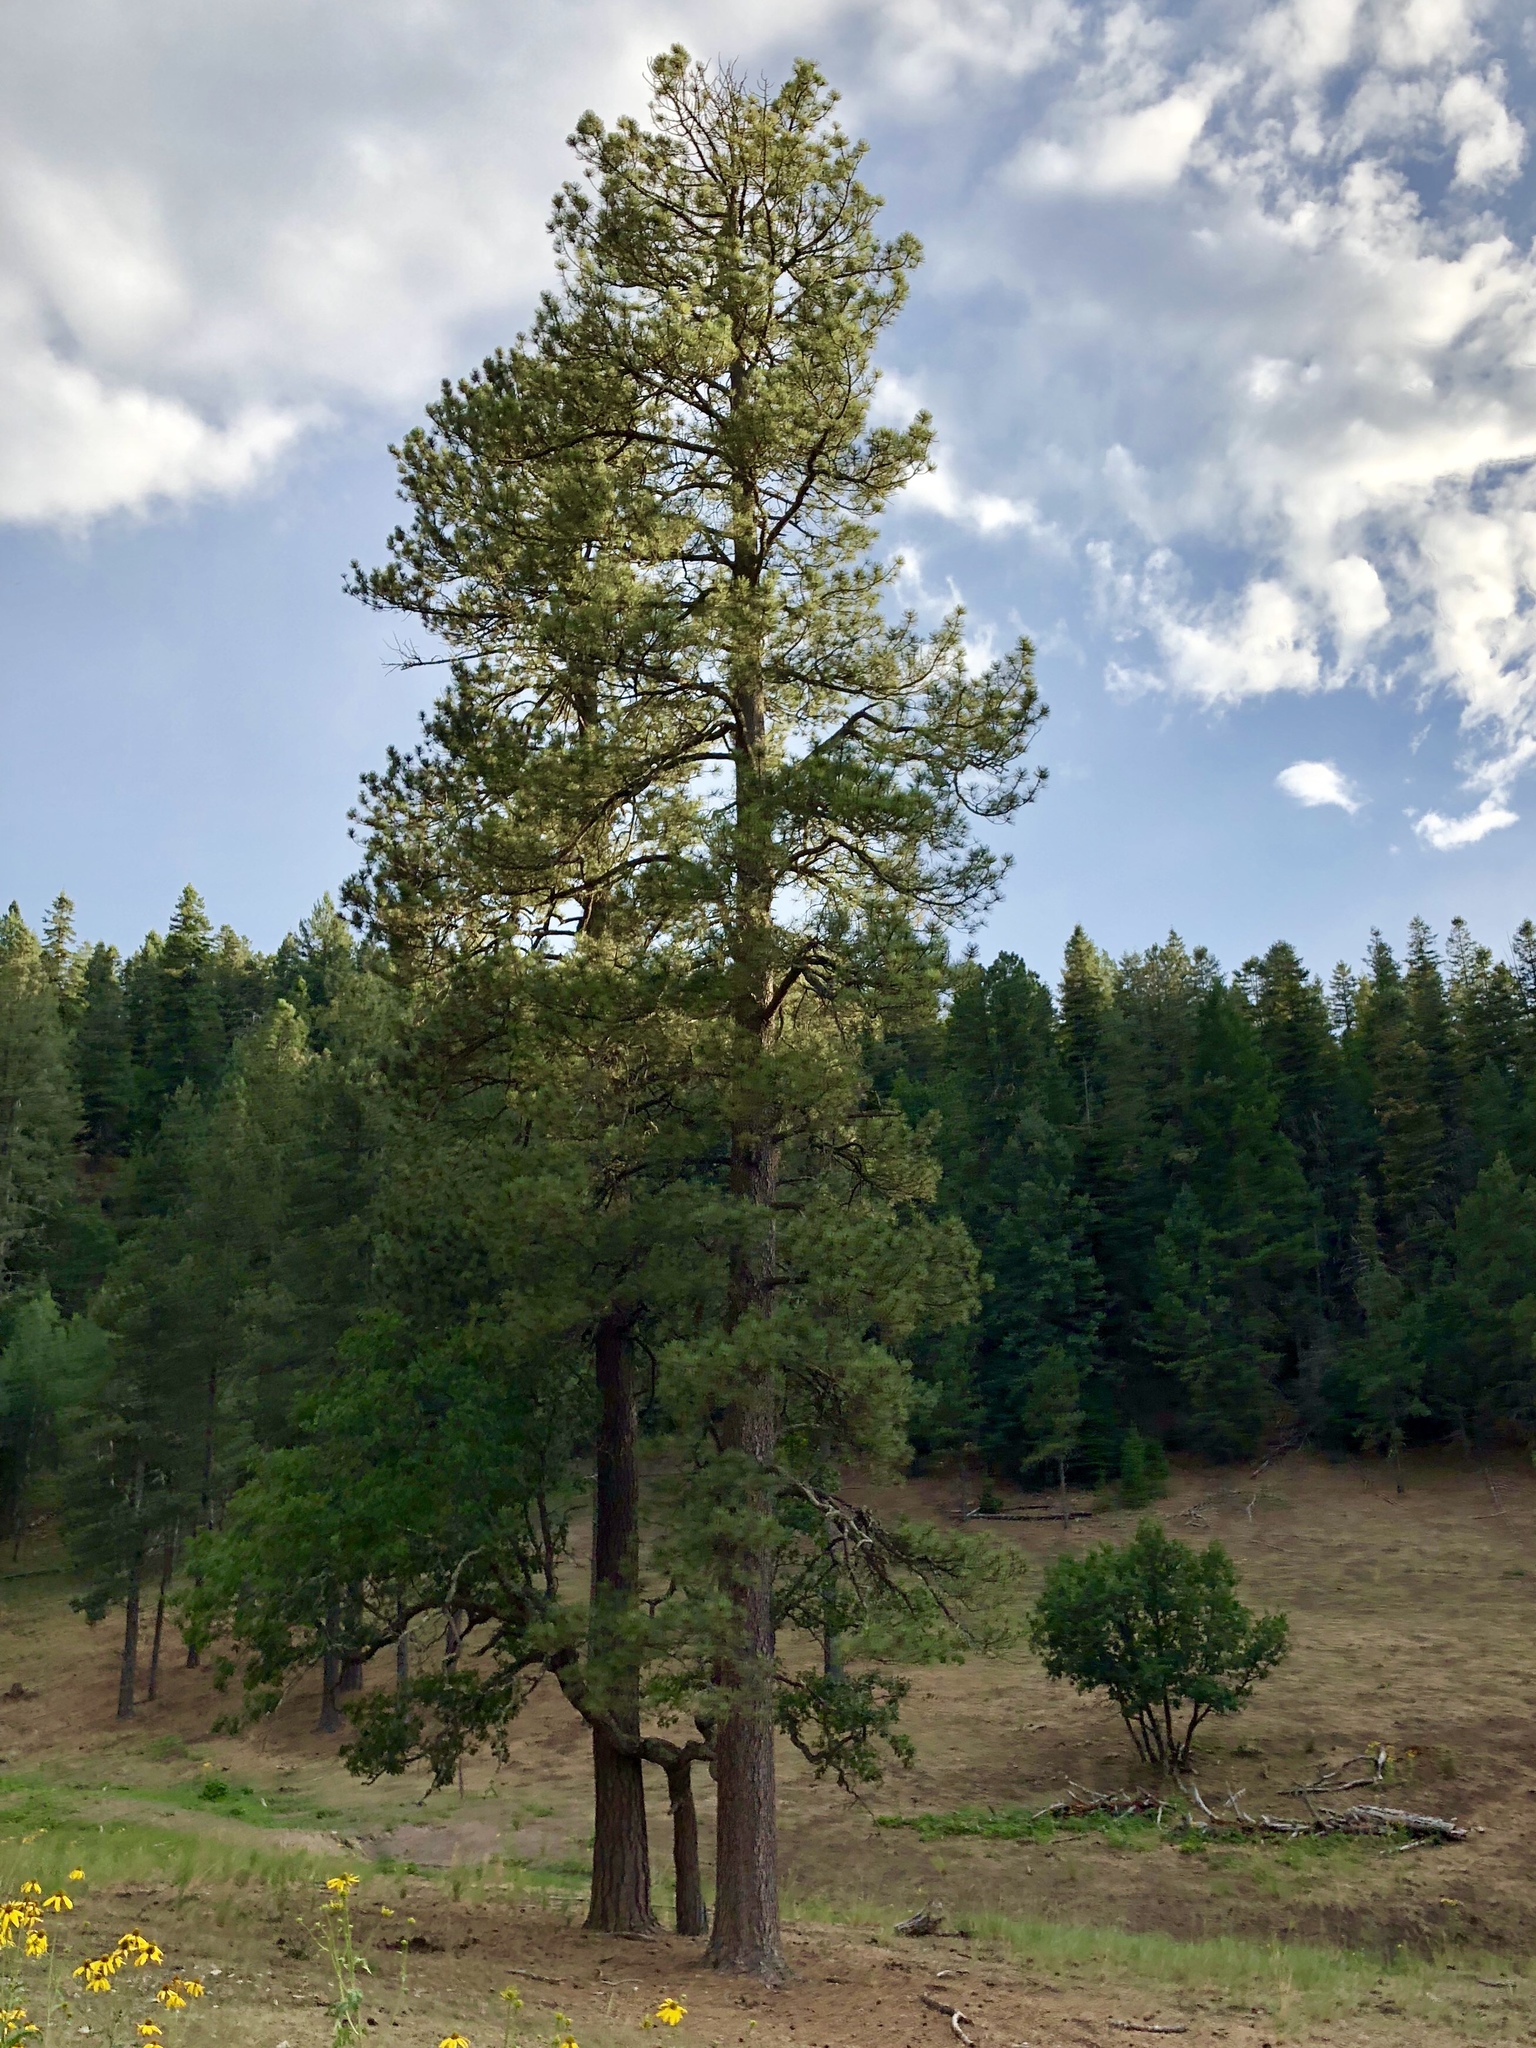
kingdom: Plantae
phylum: Tracheophyta
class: Pinopsida
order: Pinales
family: Pinaceae
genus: Pinus
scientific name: Pinus ponderosa
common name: Western yellow-pine
